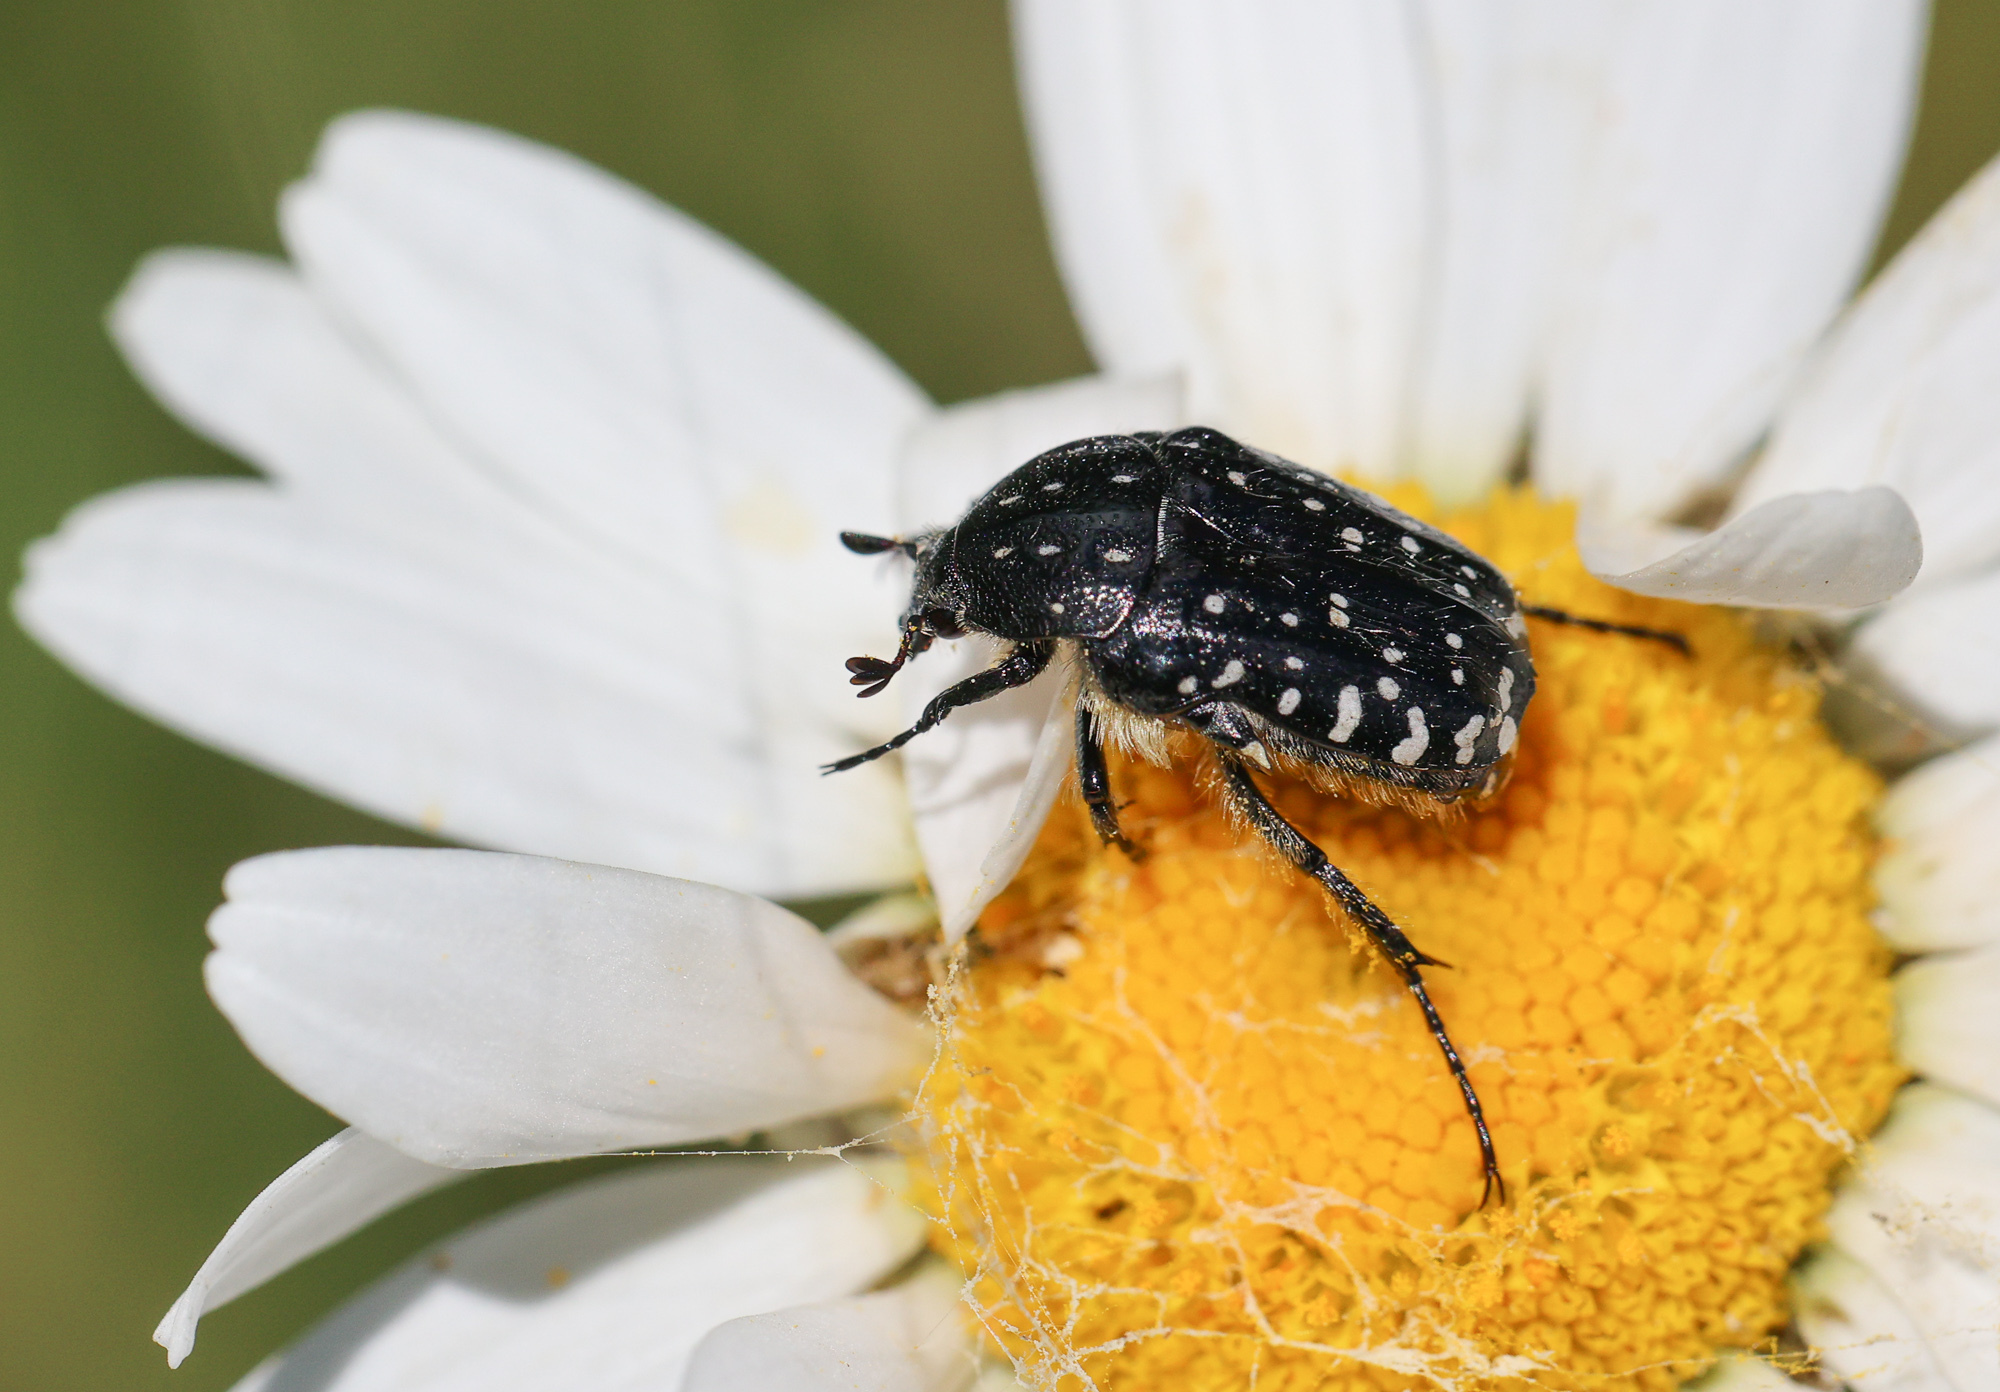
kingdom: Animalia
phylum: Arthropoda
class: Insecta
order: Coleoptera
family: Scarabaeidae
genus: Oxythyrea
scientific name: Oxythyrea funesta
